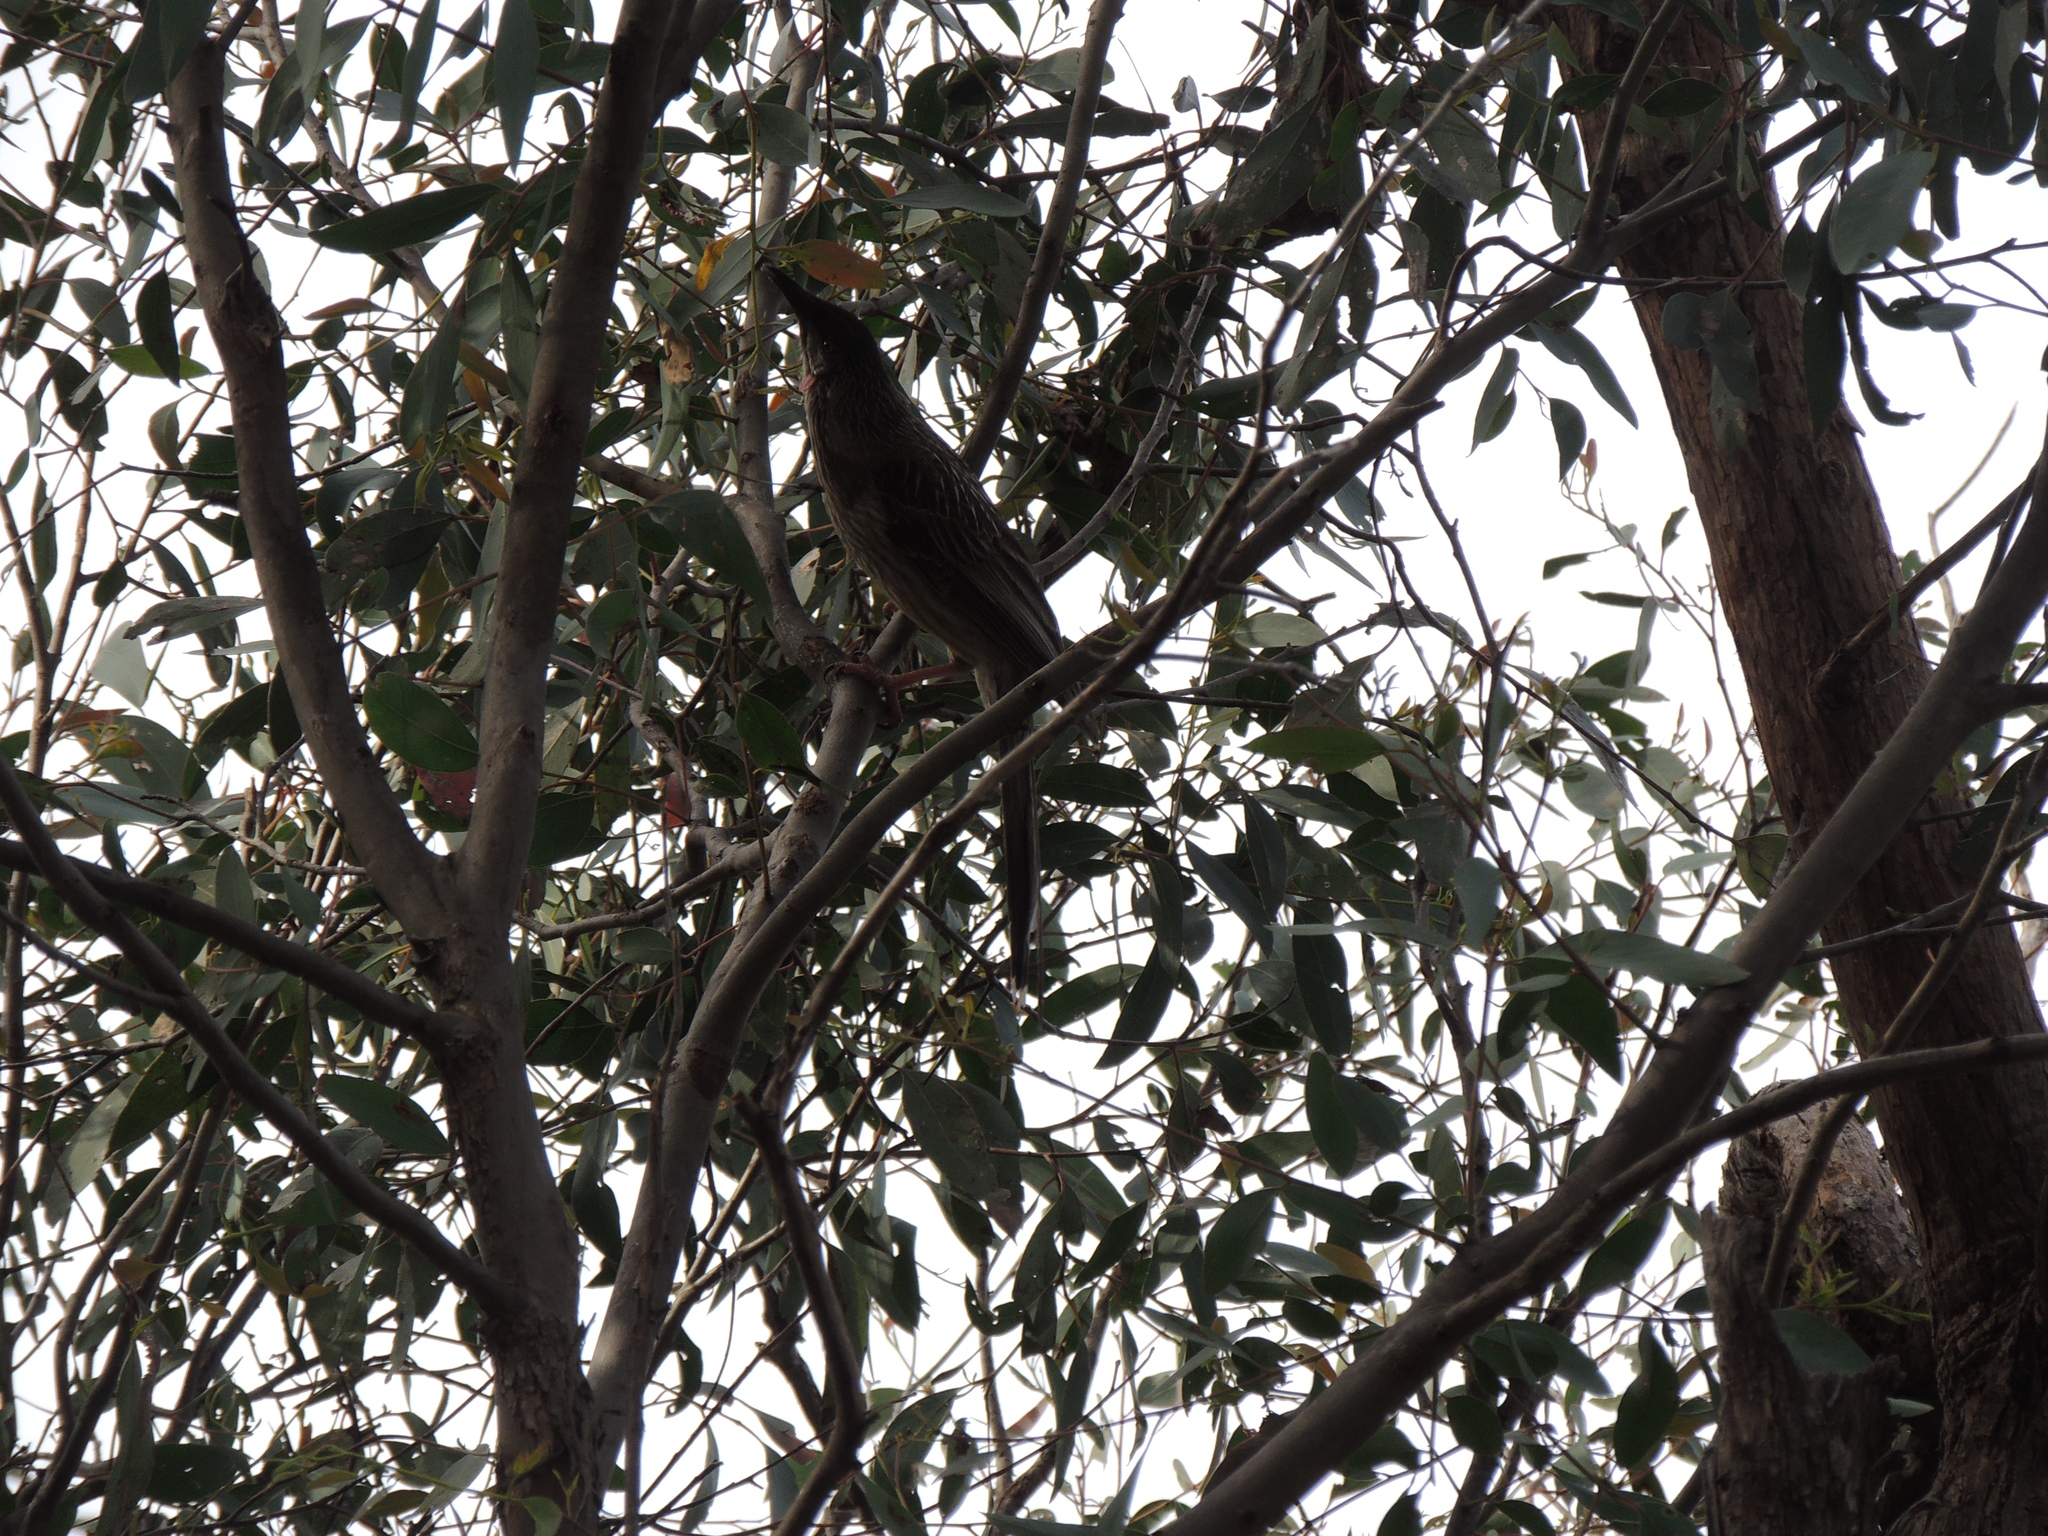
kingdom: Animalia
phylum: Chordata
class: Aves
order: Passeriformes
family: Meliphagidae
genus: Anthochaera
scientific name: Anthochaera carunculata
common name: Red wattlebird
